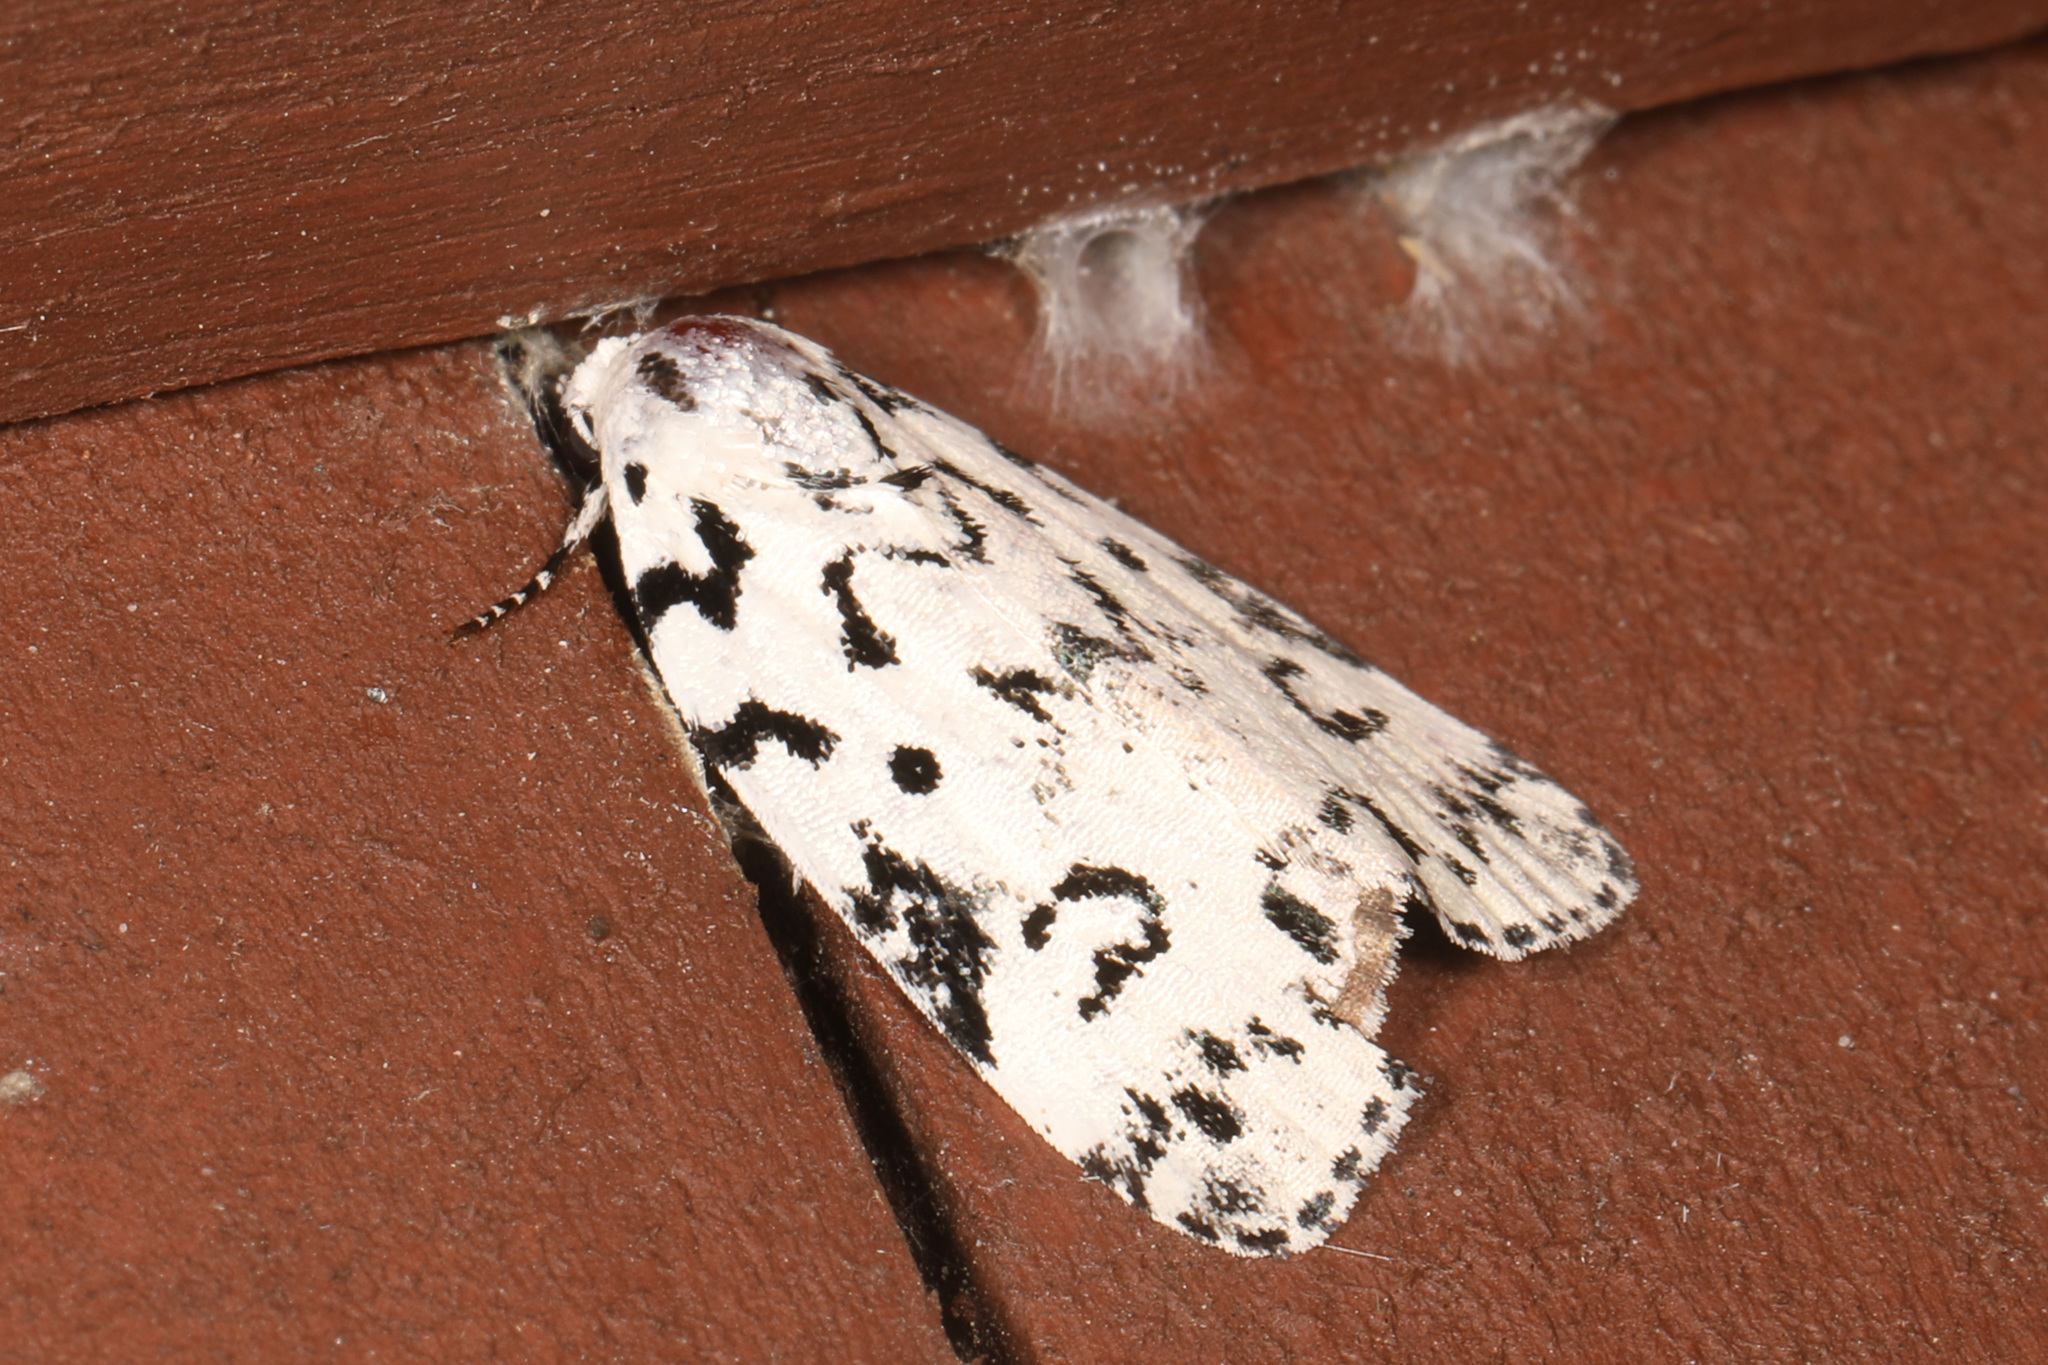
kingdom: Animalia
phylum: Arthropoda
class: Insecta
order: Lepidoptera
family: Noctuidae
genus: Polygrammate
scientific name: Polygrammate hebraeicum
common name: Hebrew moth
